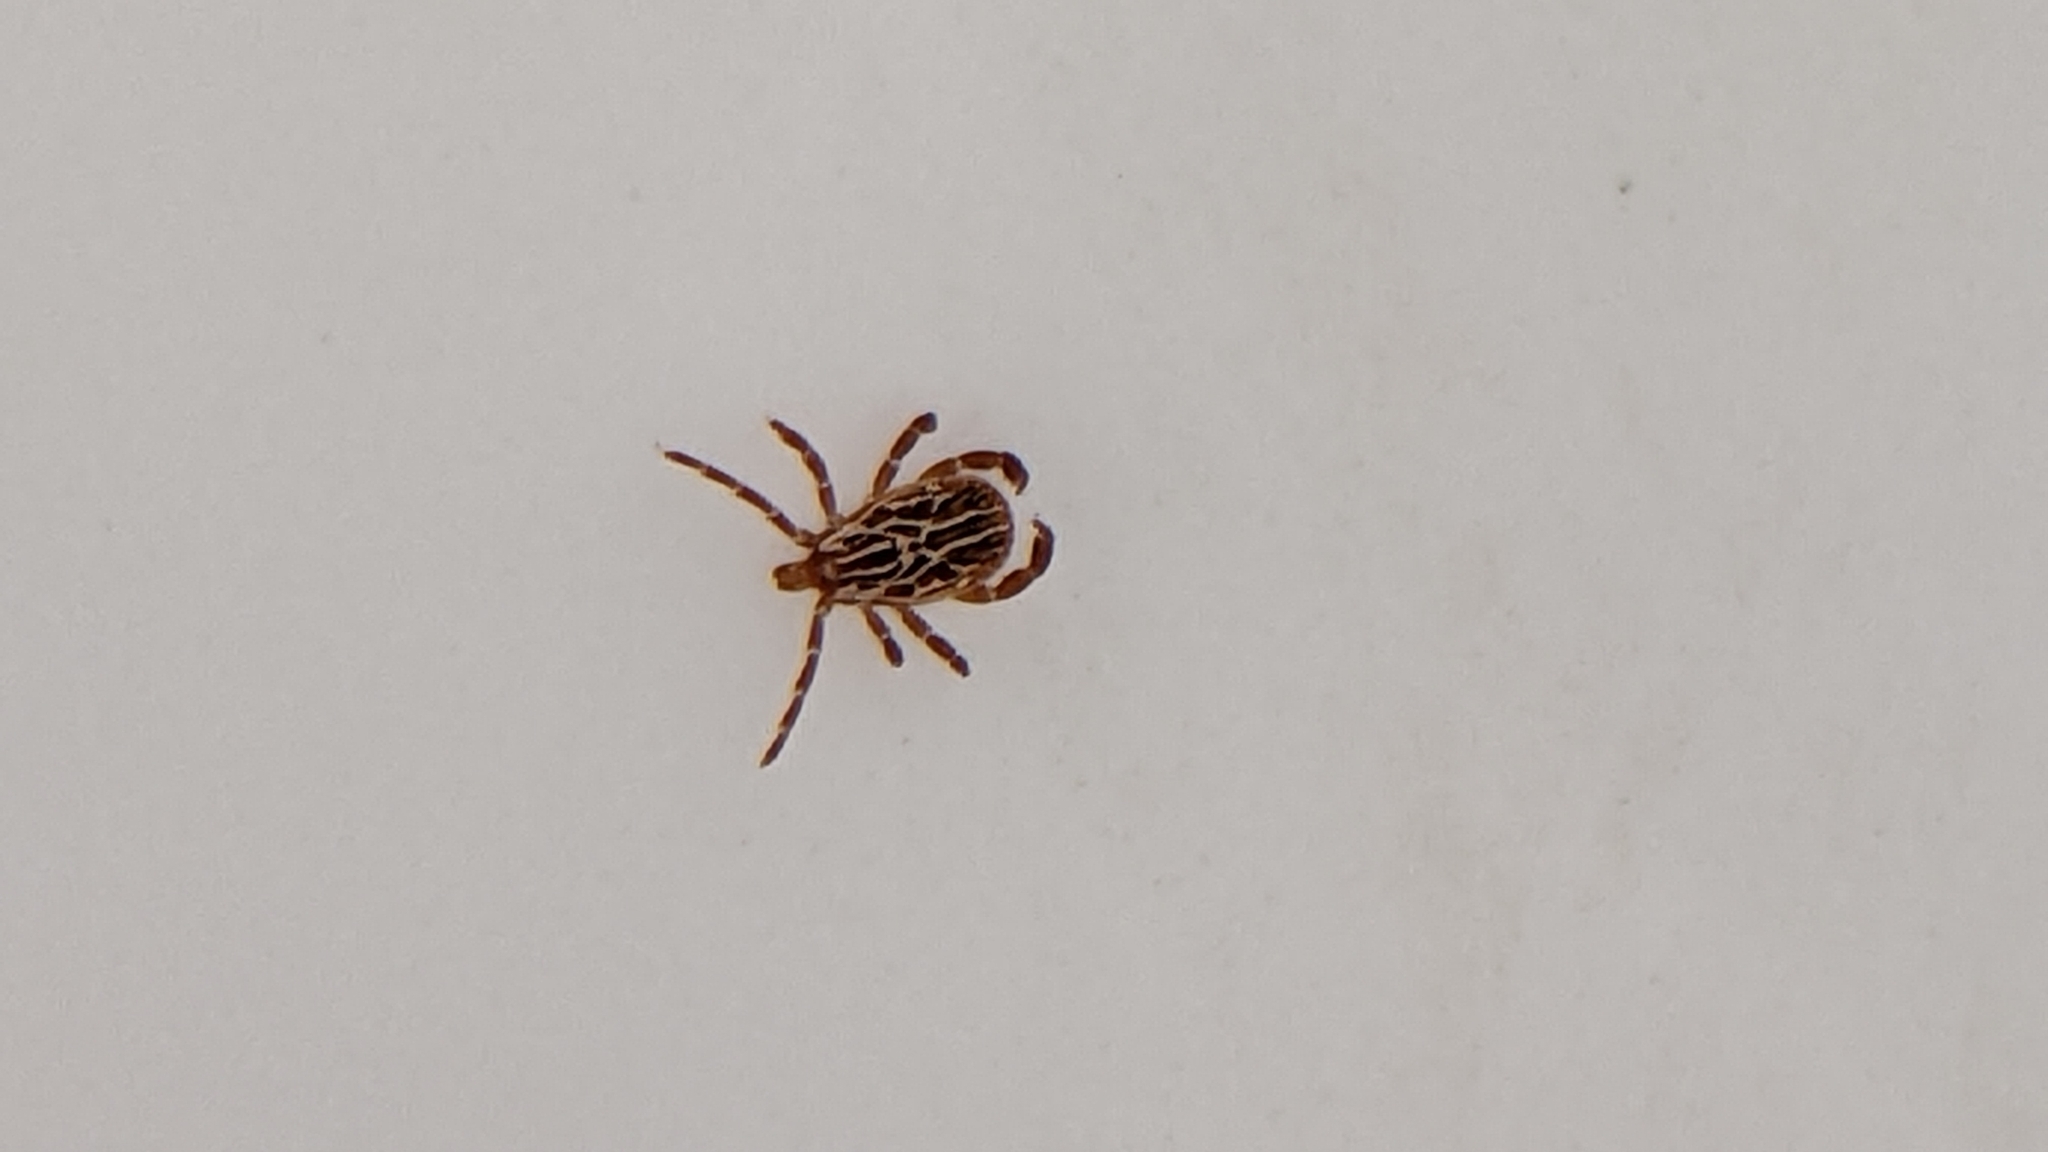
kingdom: Animalia
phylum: Arthropoda
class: Arachnida
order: Ixodida
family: Ixodidae
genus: Amblyomma
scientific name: Amblyomma maculatum
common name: Gulf coast tick
